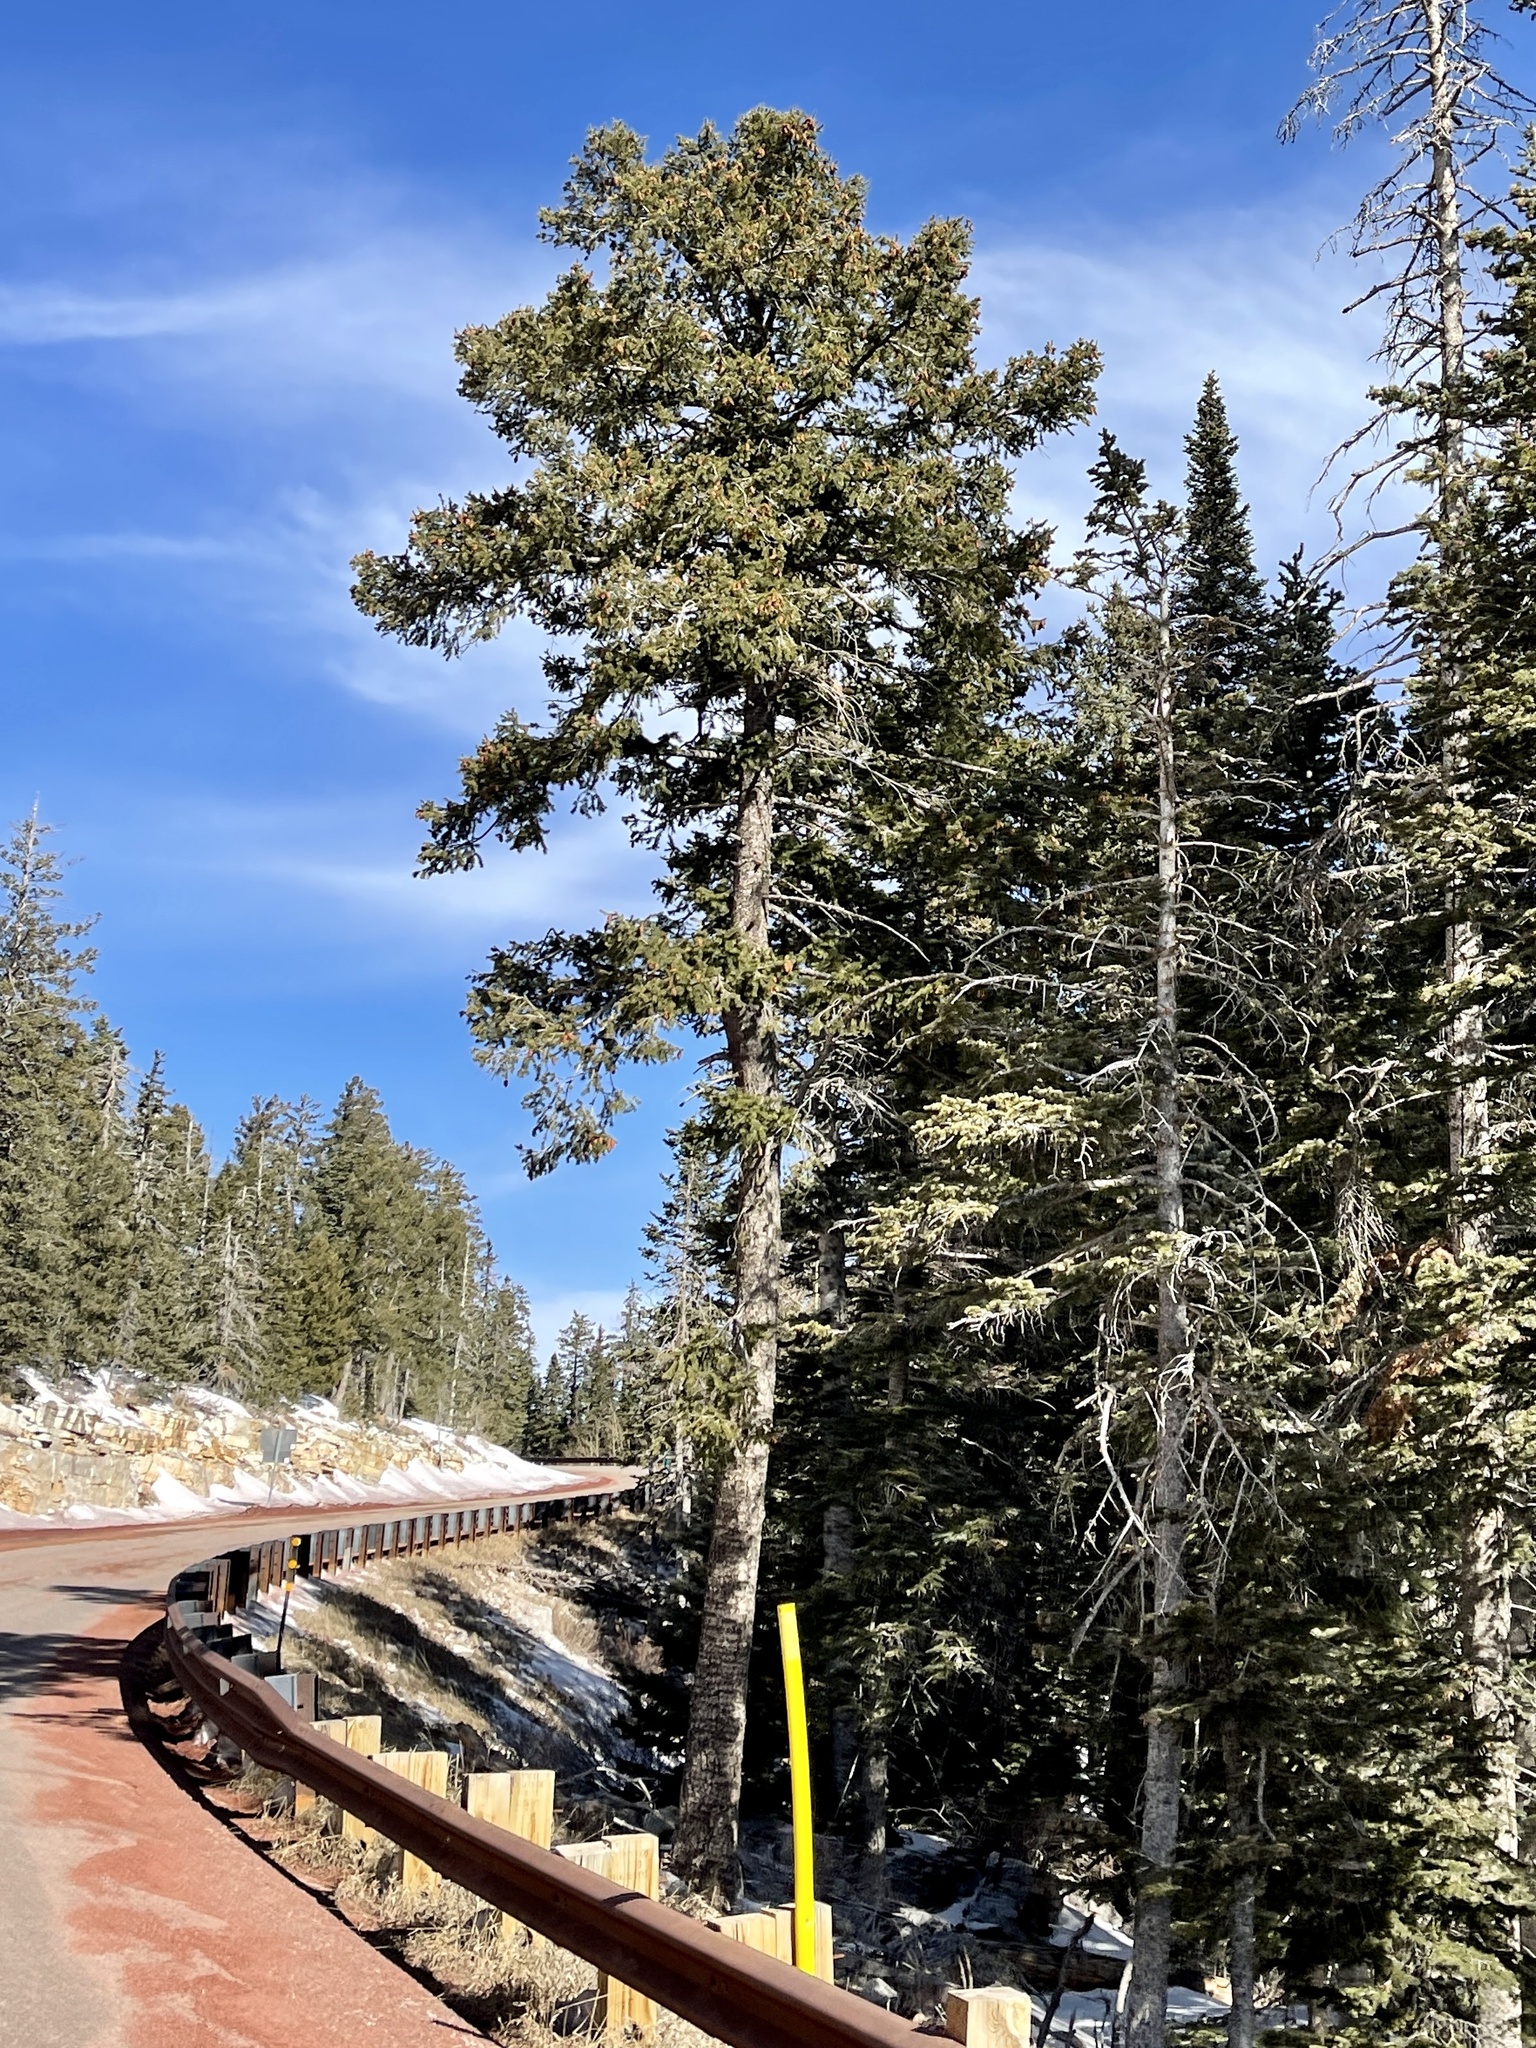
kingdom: Plantae
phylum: Tracheophyta
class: Pinopsida
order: Pinales
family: Pinaceae
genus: Pseudotsuga
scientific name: Pseudotsuga menziesii
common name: Douglas fir
